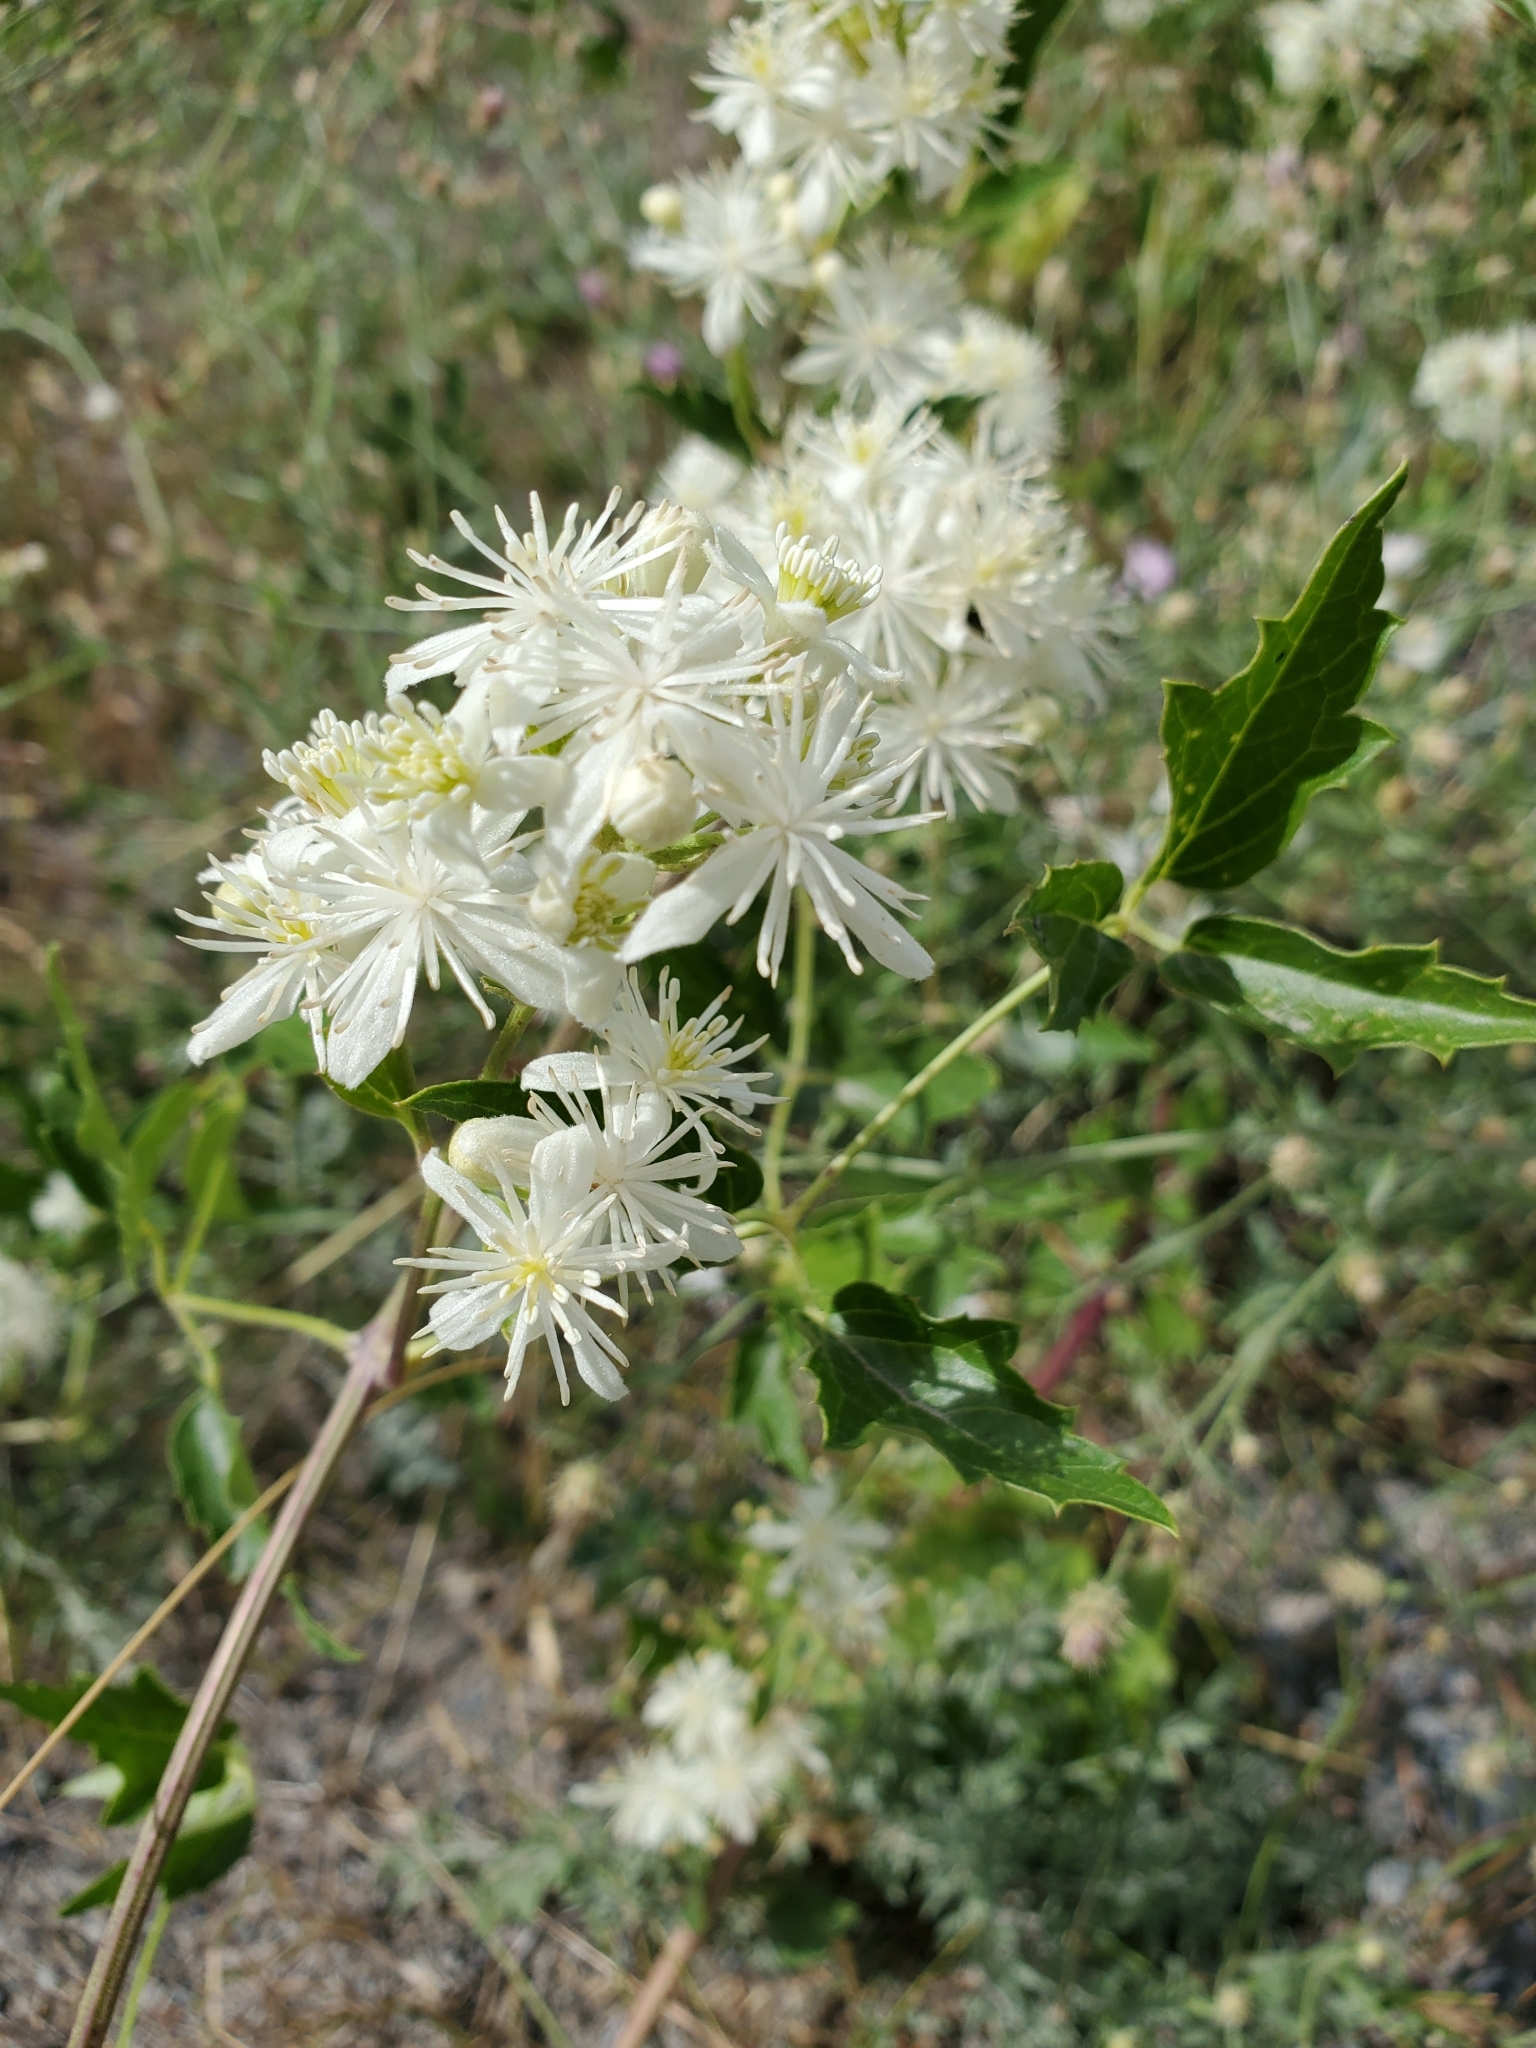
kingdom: Plantae
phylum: Tracheophyta
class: Magnoliopsida
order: Ranunculales
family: Ranunculaceae
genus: Clematis
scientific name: Clematis ligusticifolia
